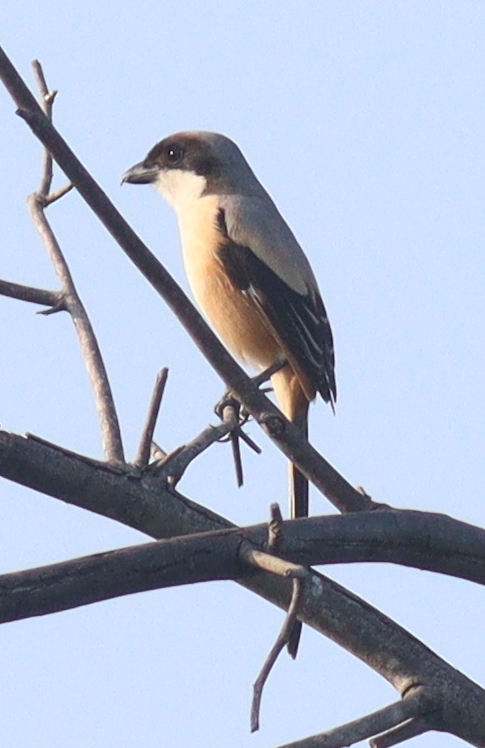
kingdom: Animalia
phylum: Chordata
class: Aves
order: Passeriformes
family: Laniidae
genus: Lanius
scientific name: Lanius schach
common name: Long-tailed shrike
